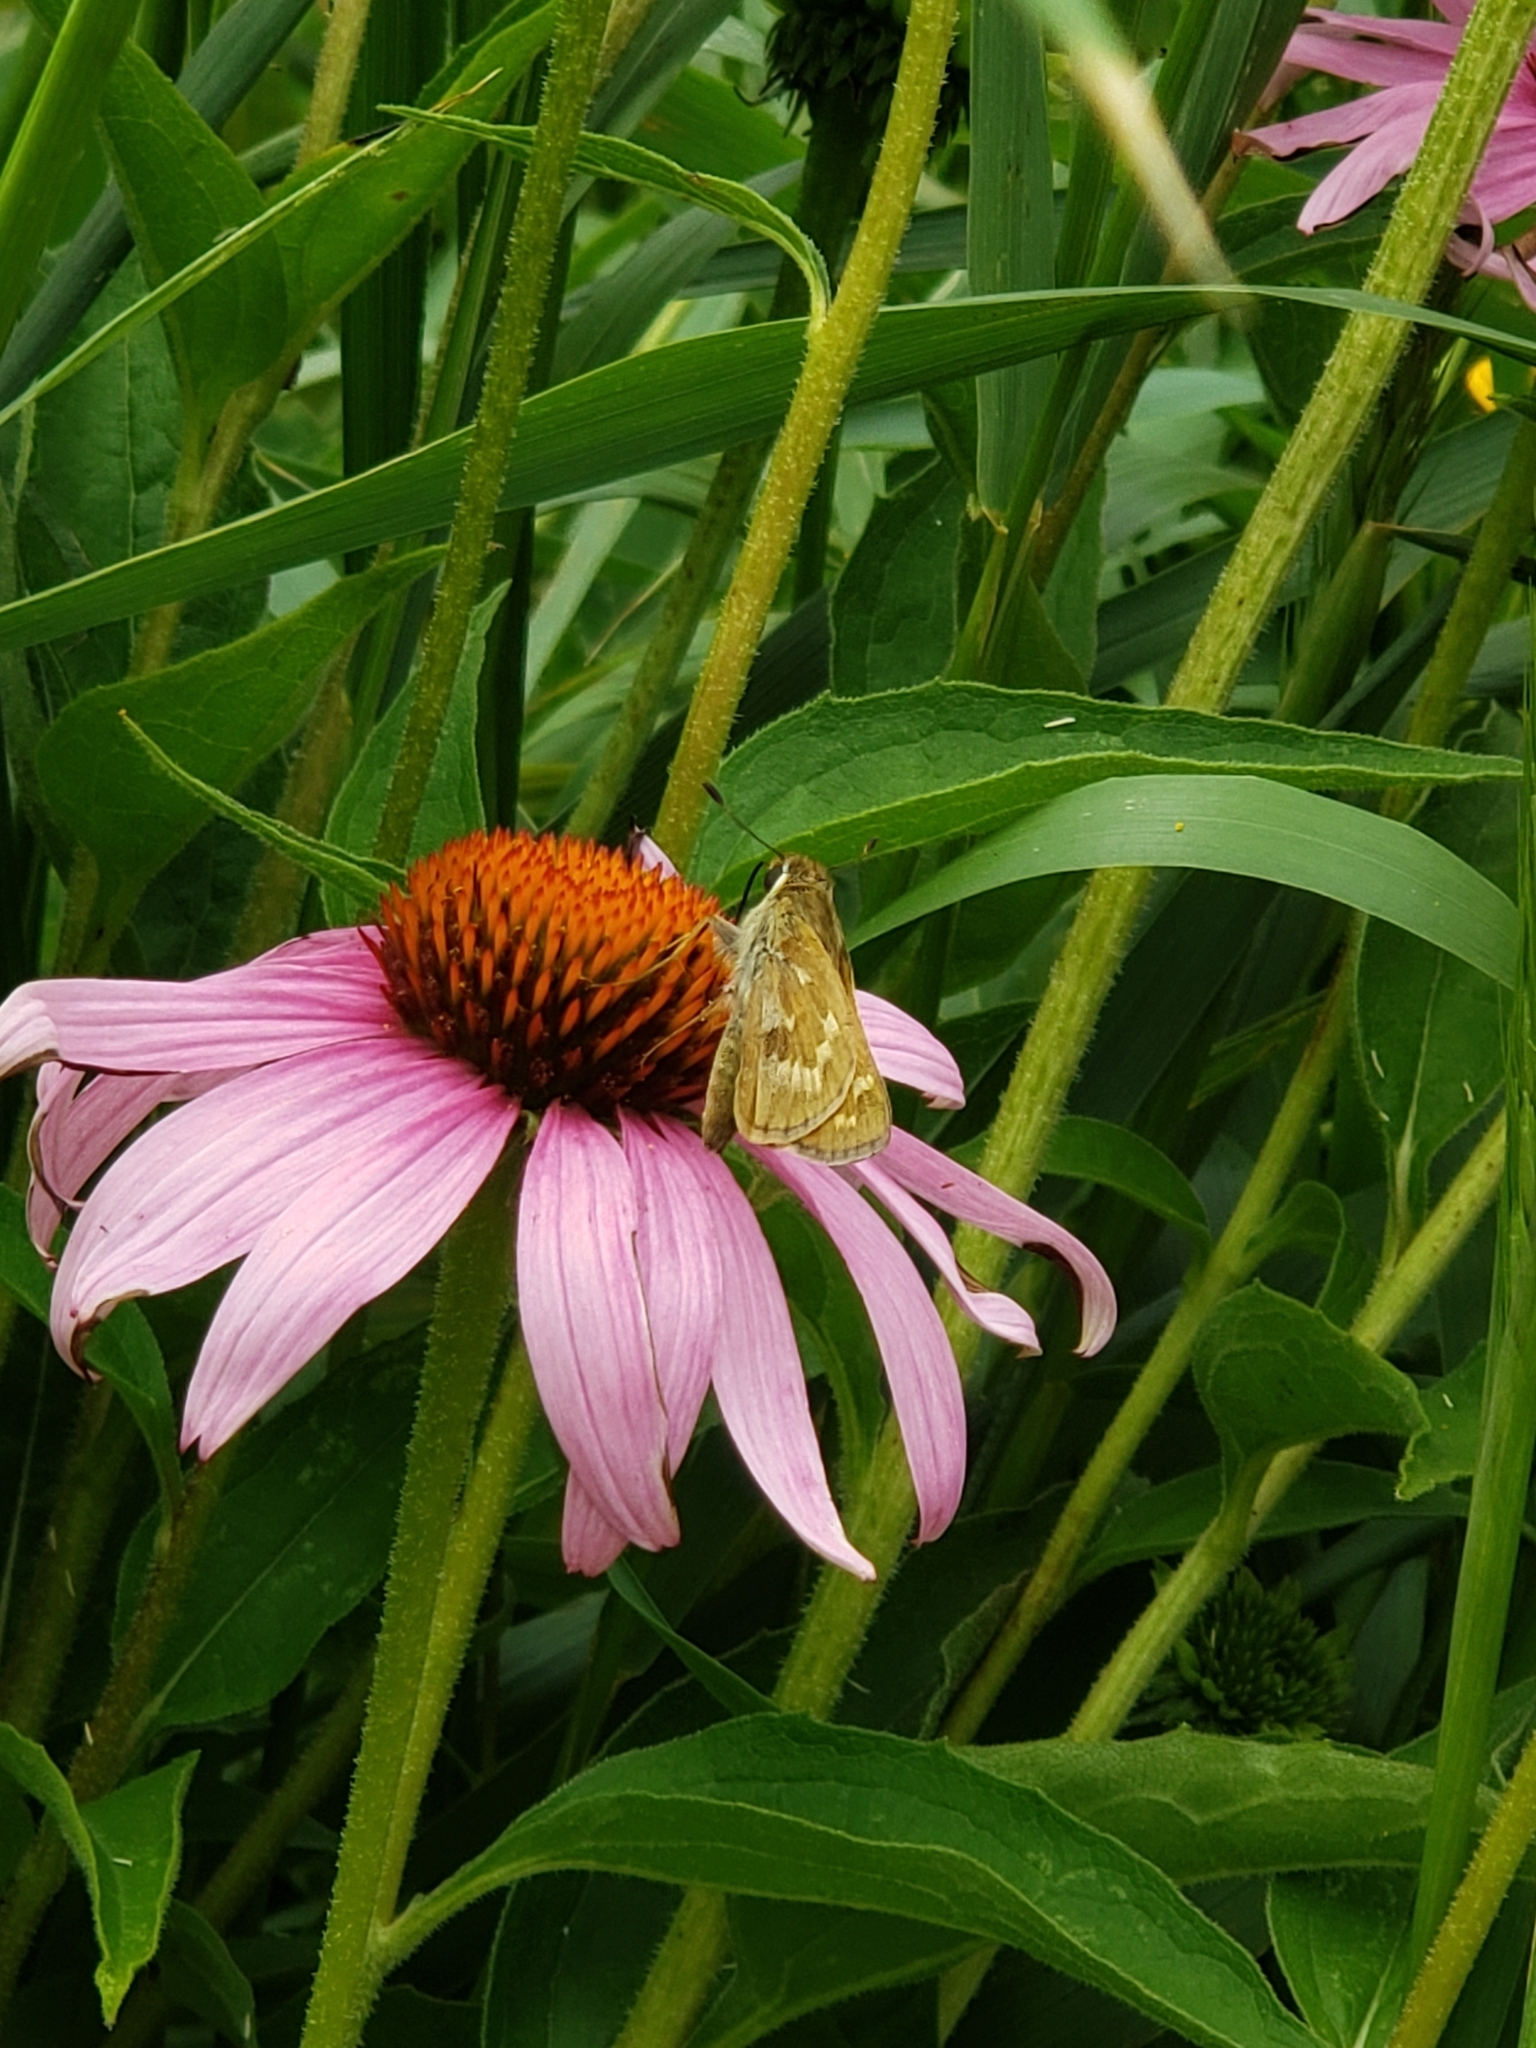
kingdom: Animalia
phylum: Arthropoda
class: Insecta
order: Lepidoptera
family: Hesperiidae
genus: Atalopedes
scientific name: Atalopedes
